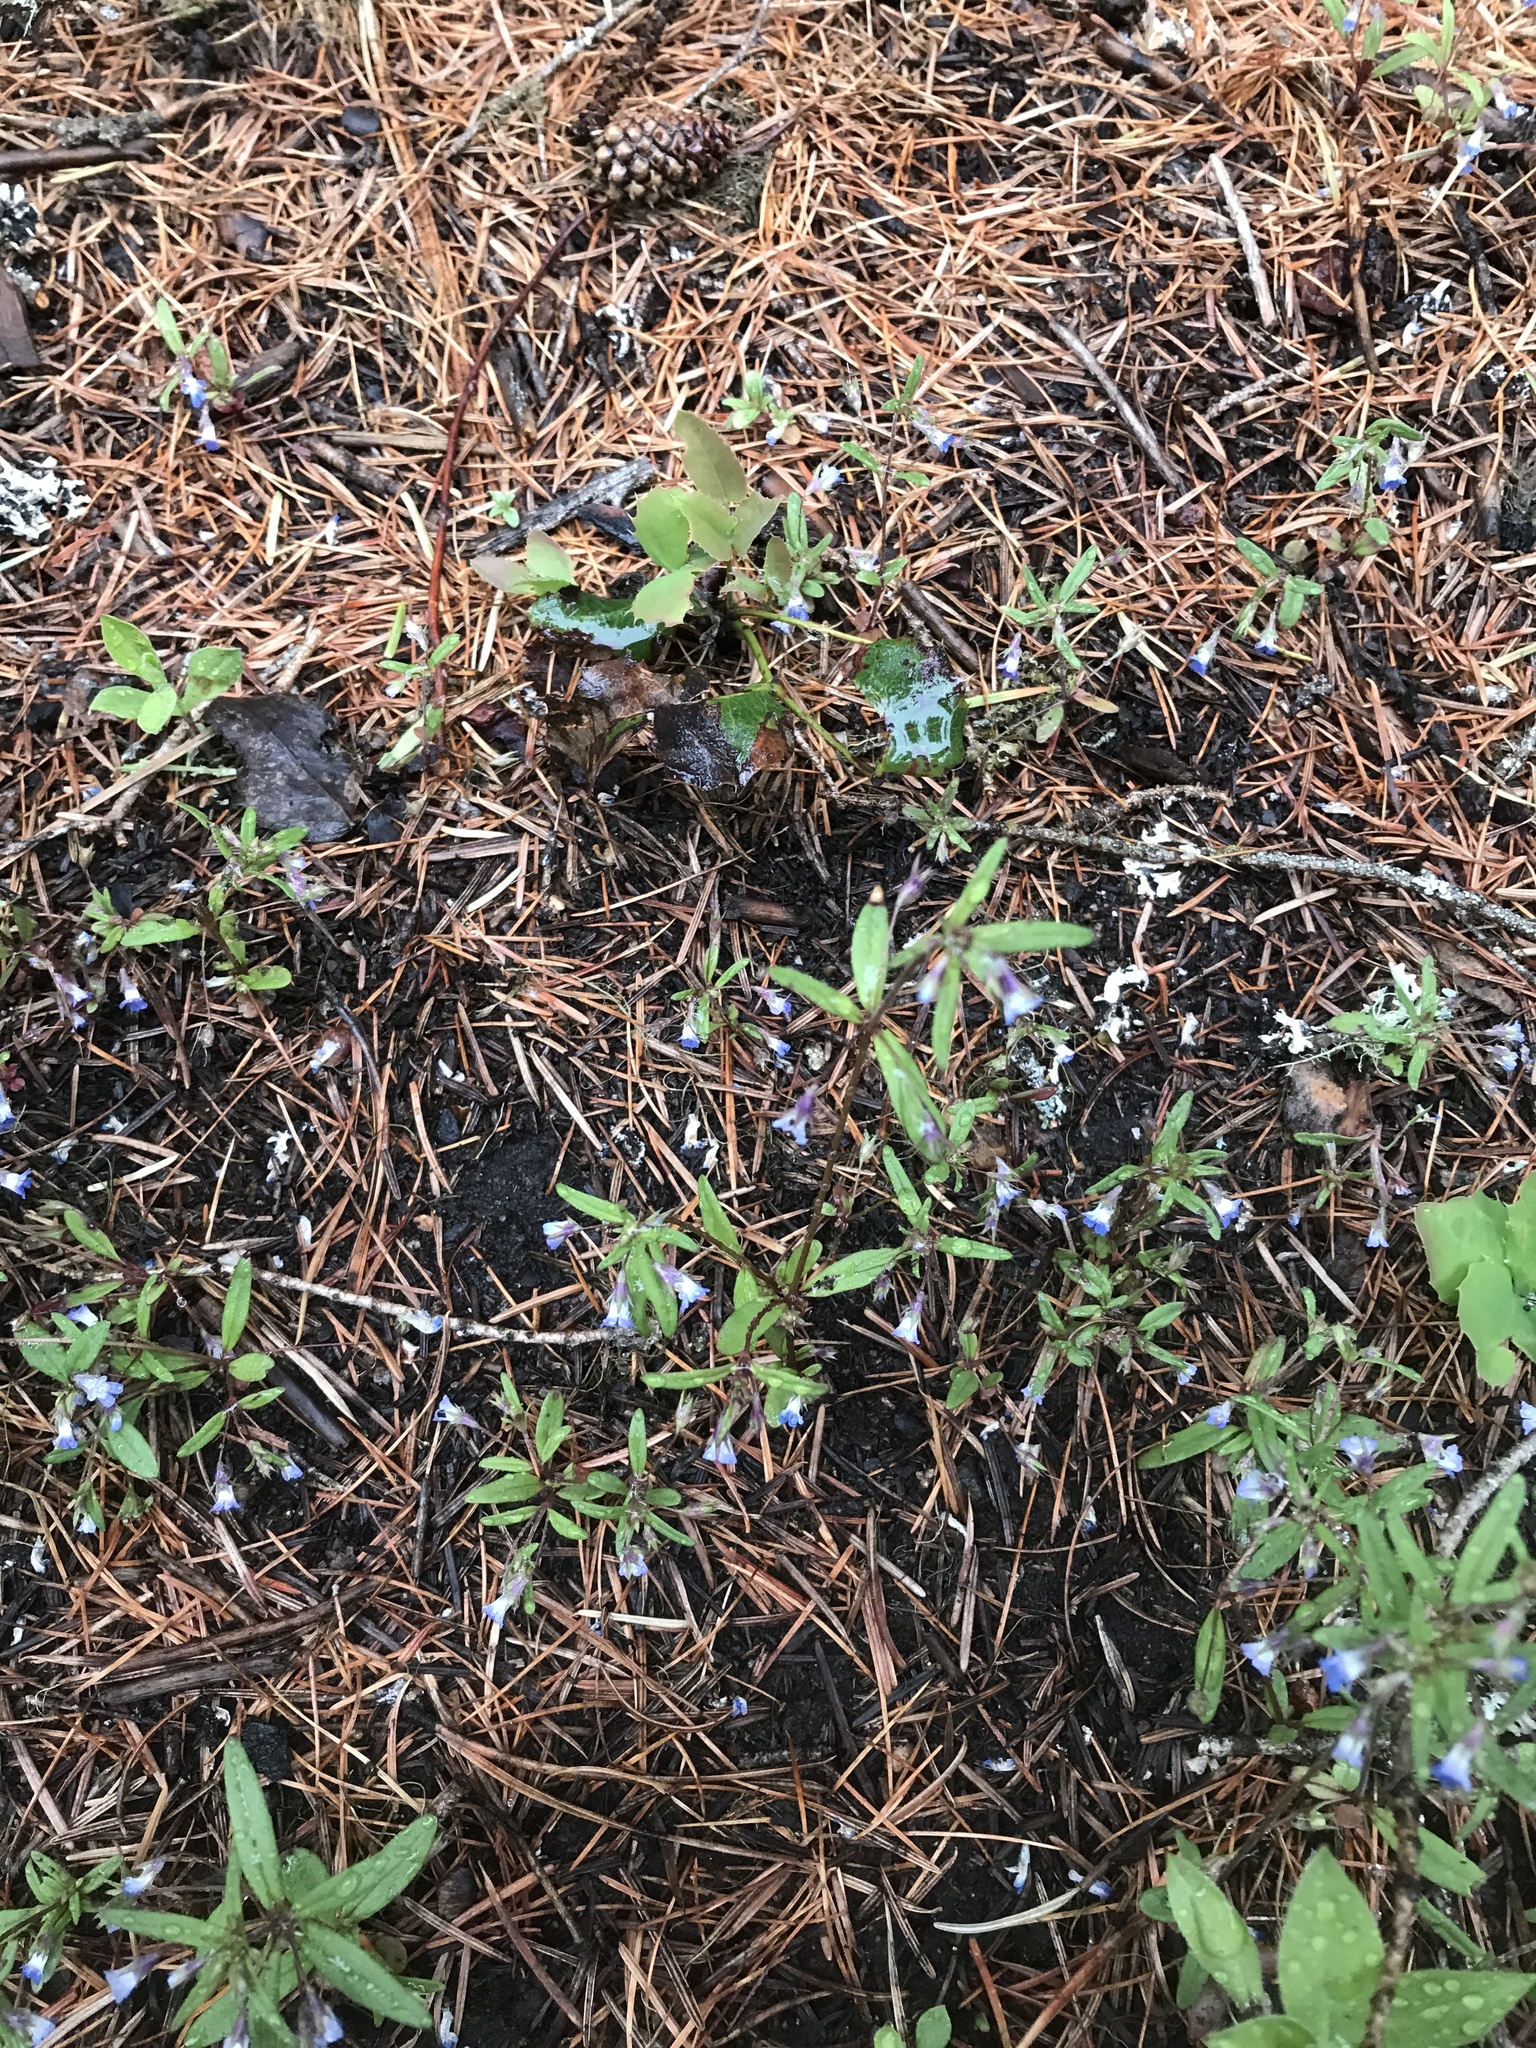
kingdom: Plantae
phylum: Tracheophyta
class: Magnoliopsida
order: Lamiales
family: Plantaginaceae
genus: Collinsia
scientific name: Collinsia parviflora
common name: Blue-lips
